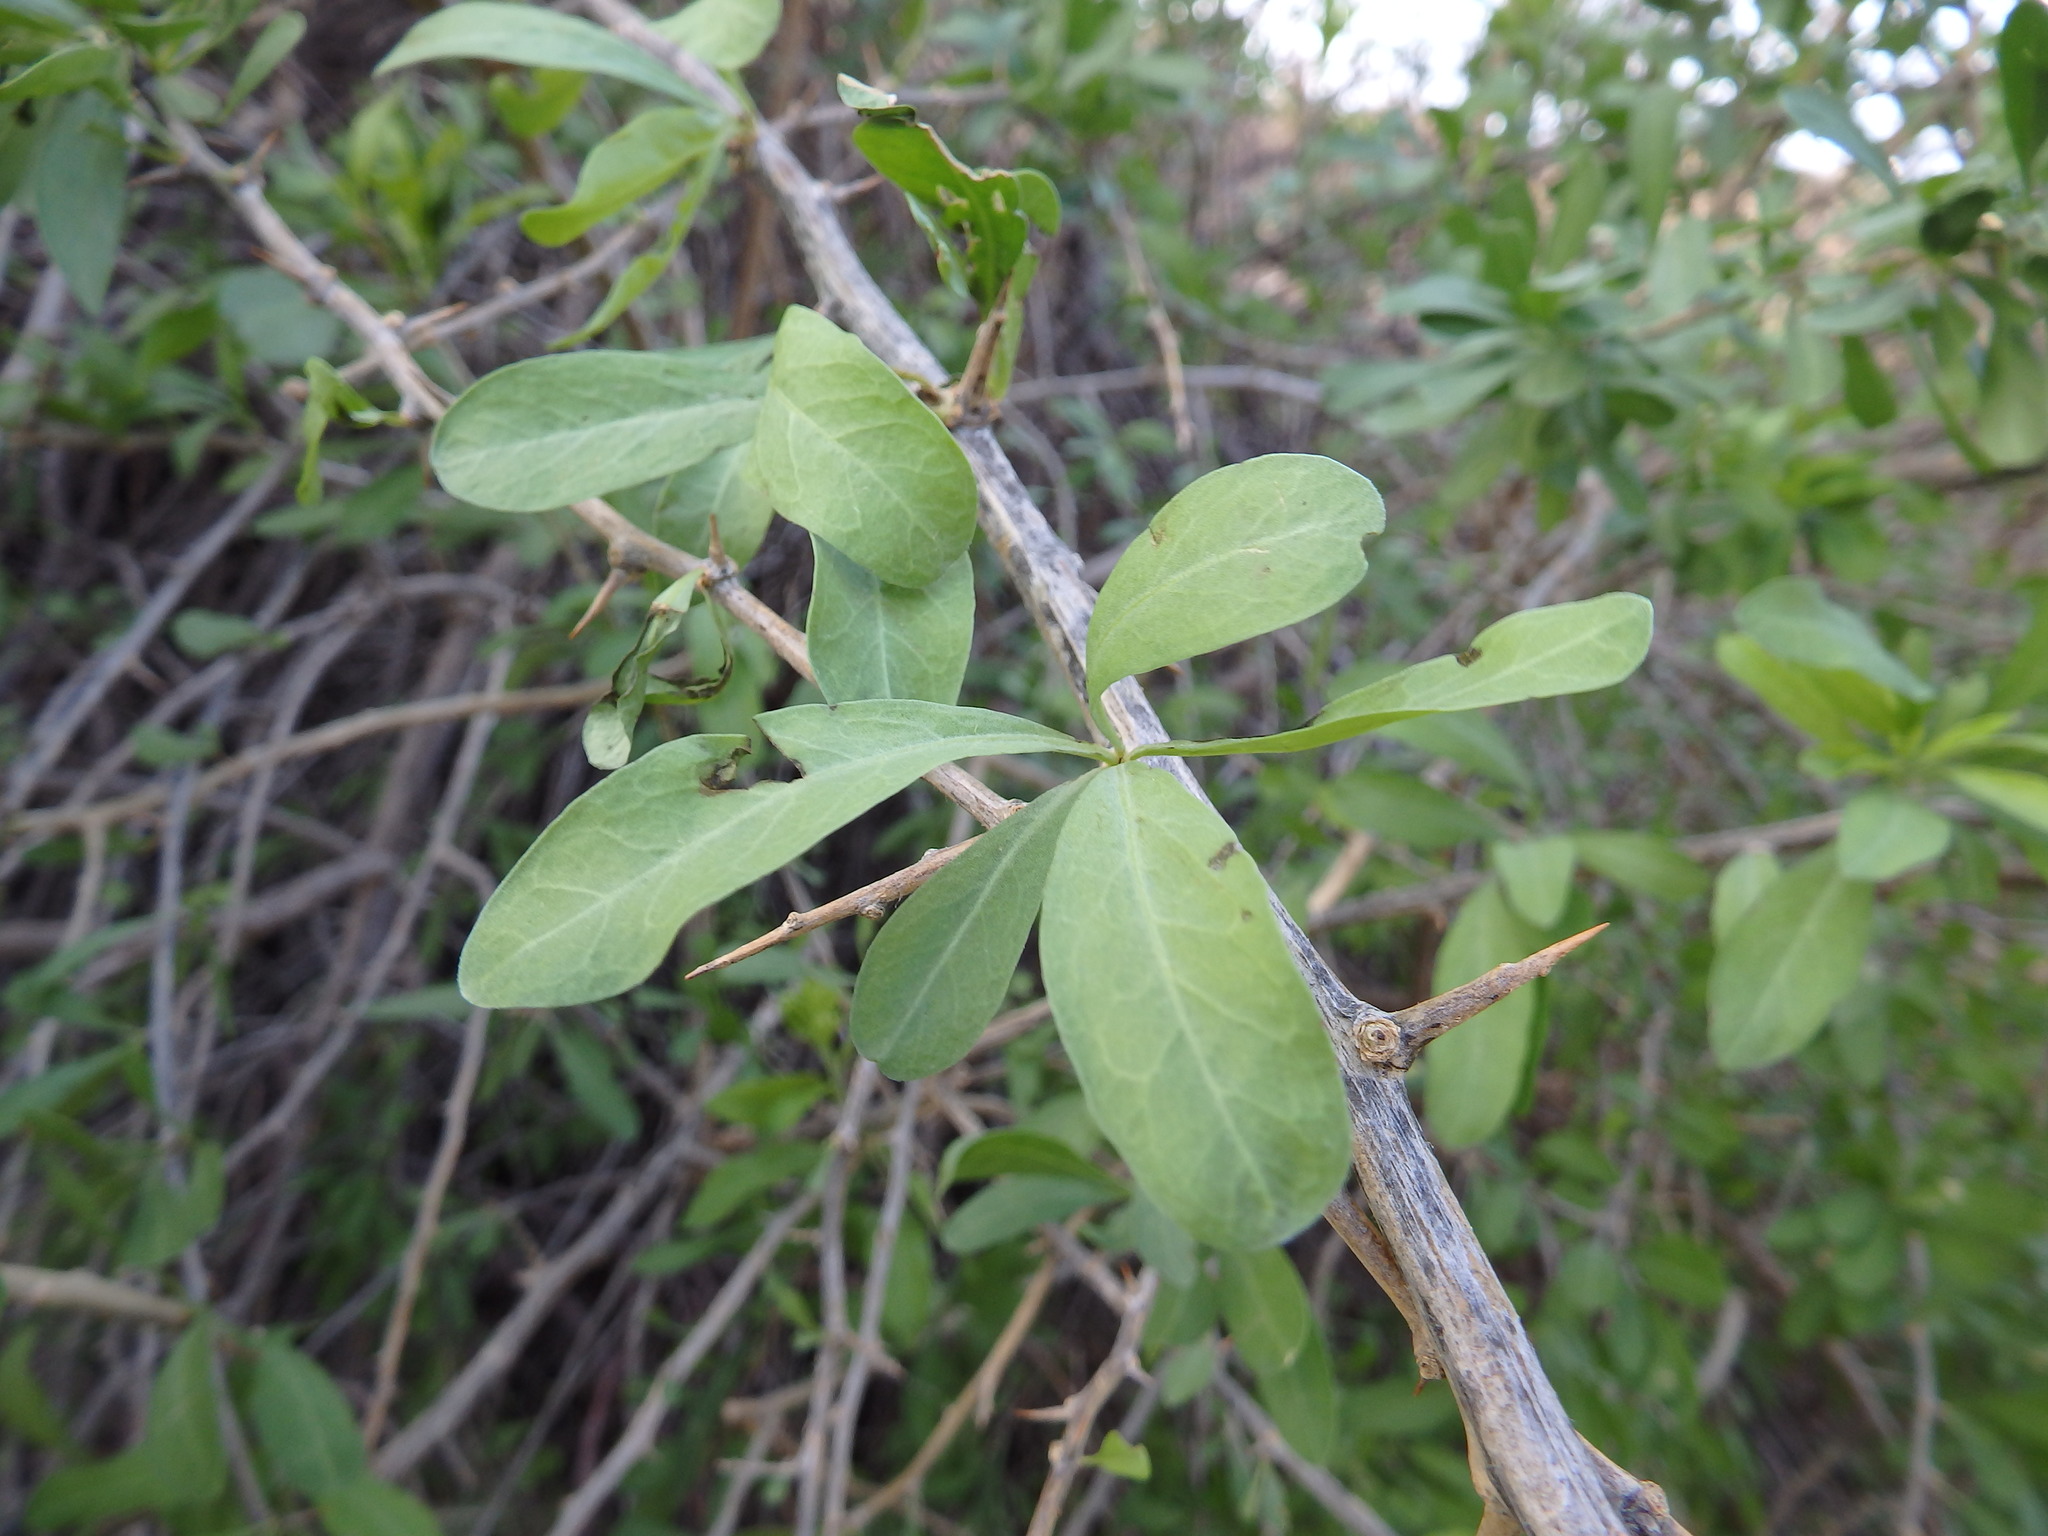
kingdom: Plantae
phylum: Tracheophyta
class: Magnoliopsida
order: Solanales
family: Solanaceae
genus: Lycium
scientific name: Lycium europaeum
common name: Boxthorn
